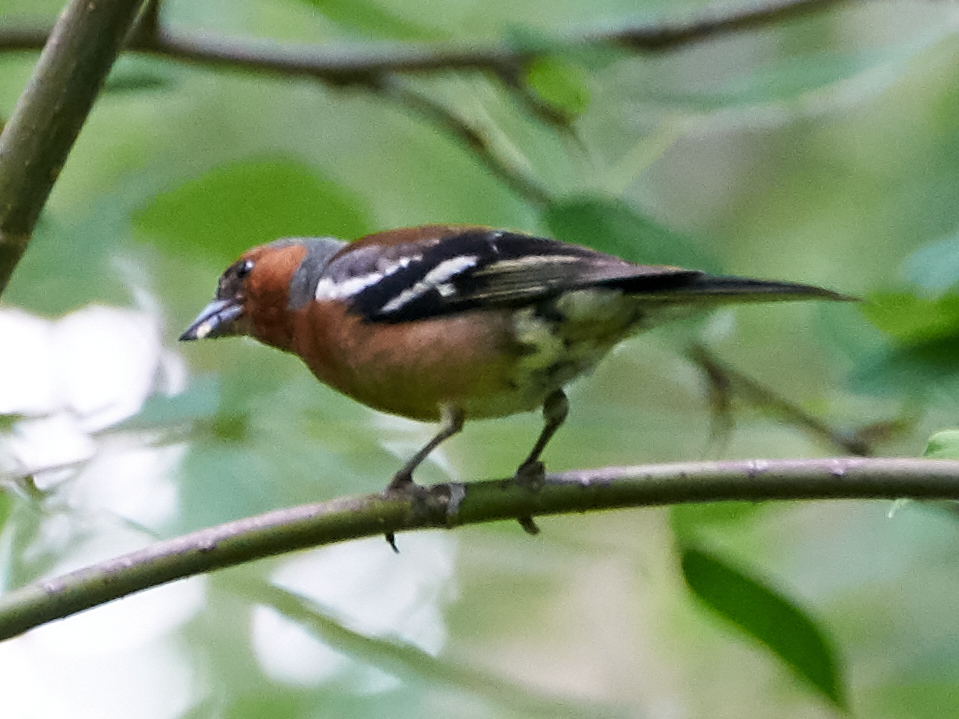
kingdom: Animalia
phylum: Chordata
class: Aves
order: Passeriformes
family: Fringillidae
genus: Fringilla
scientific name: Fringilla coelebs
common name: Common chaffinch
